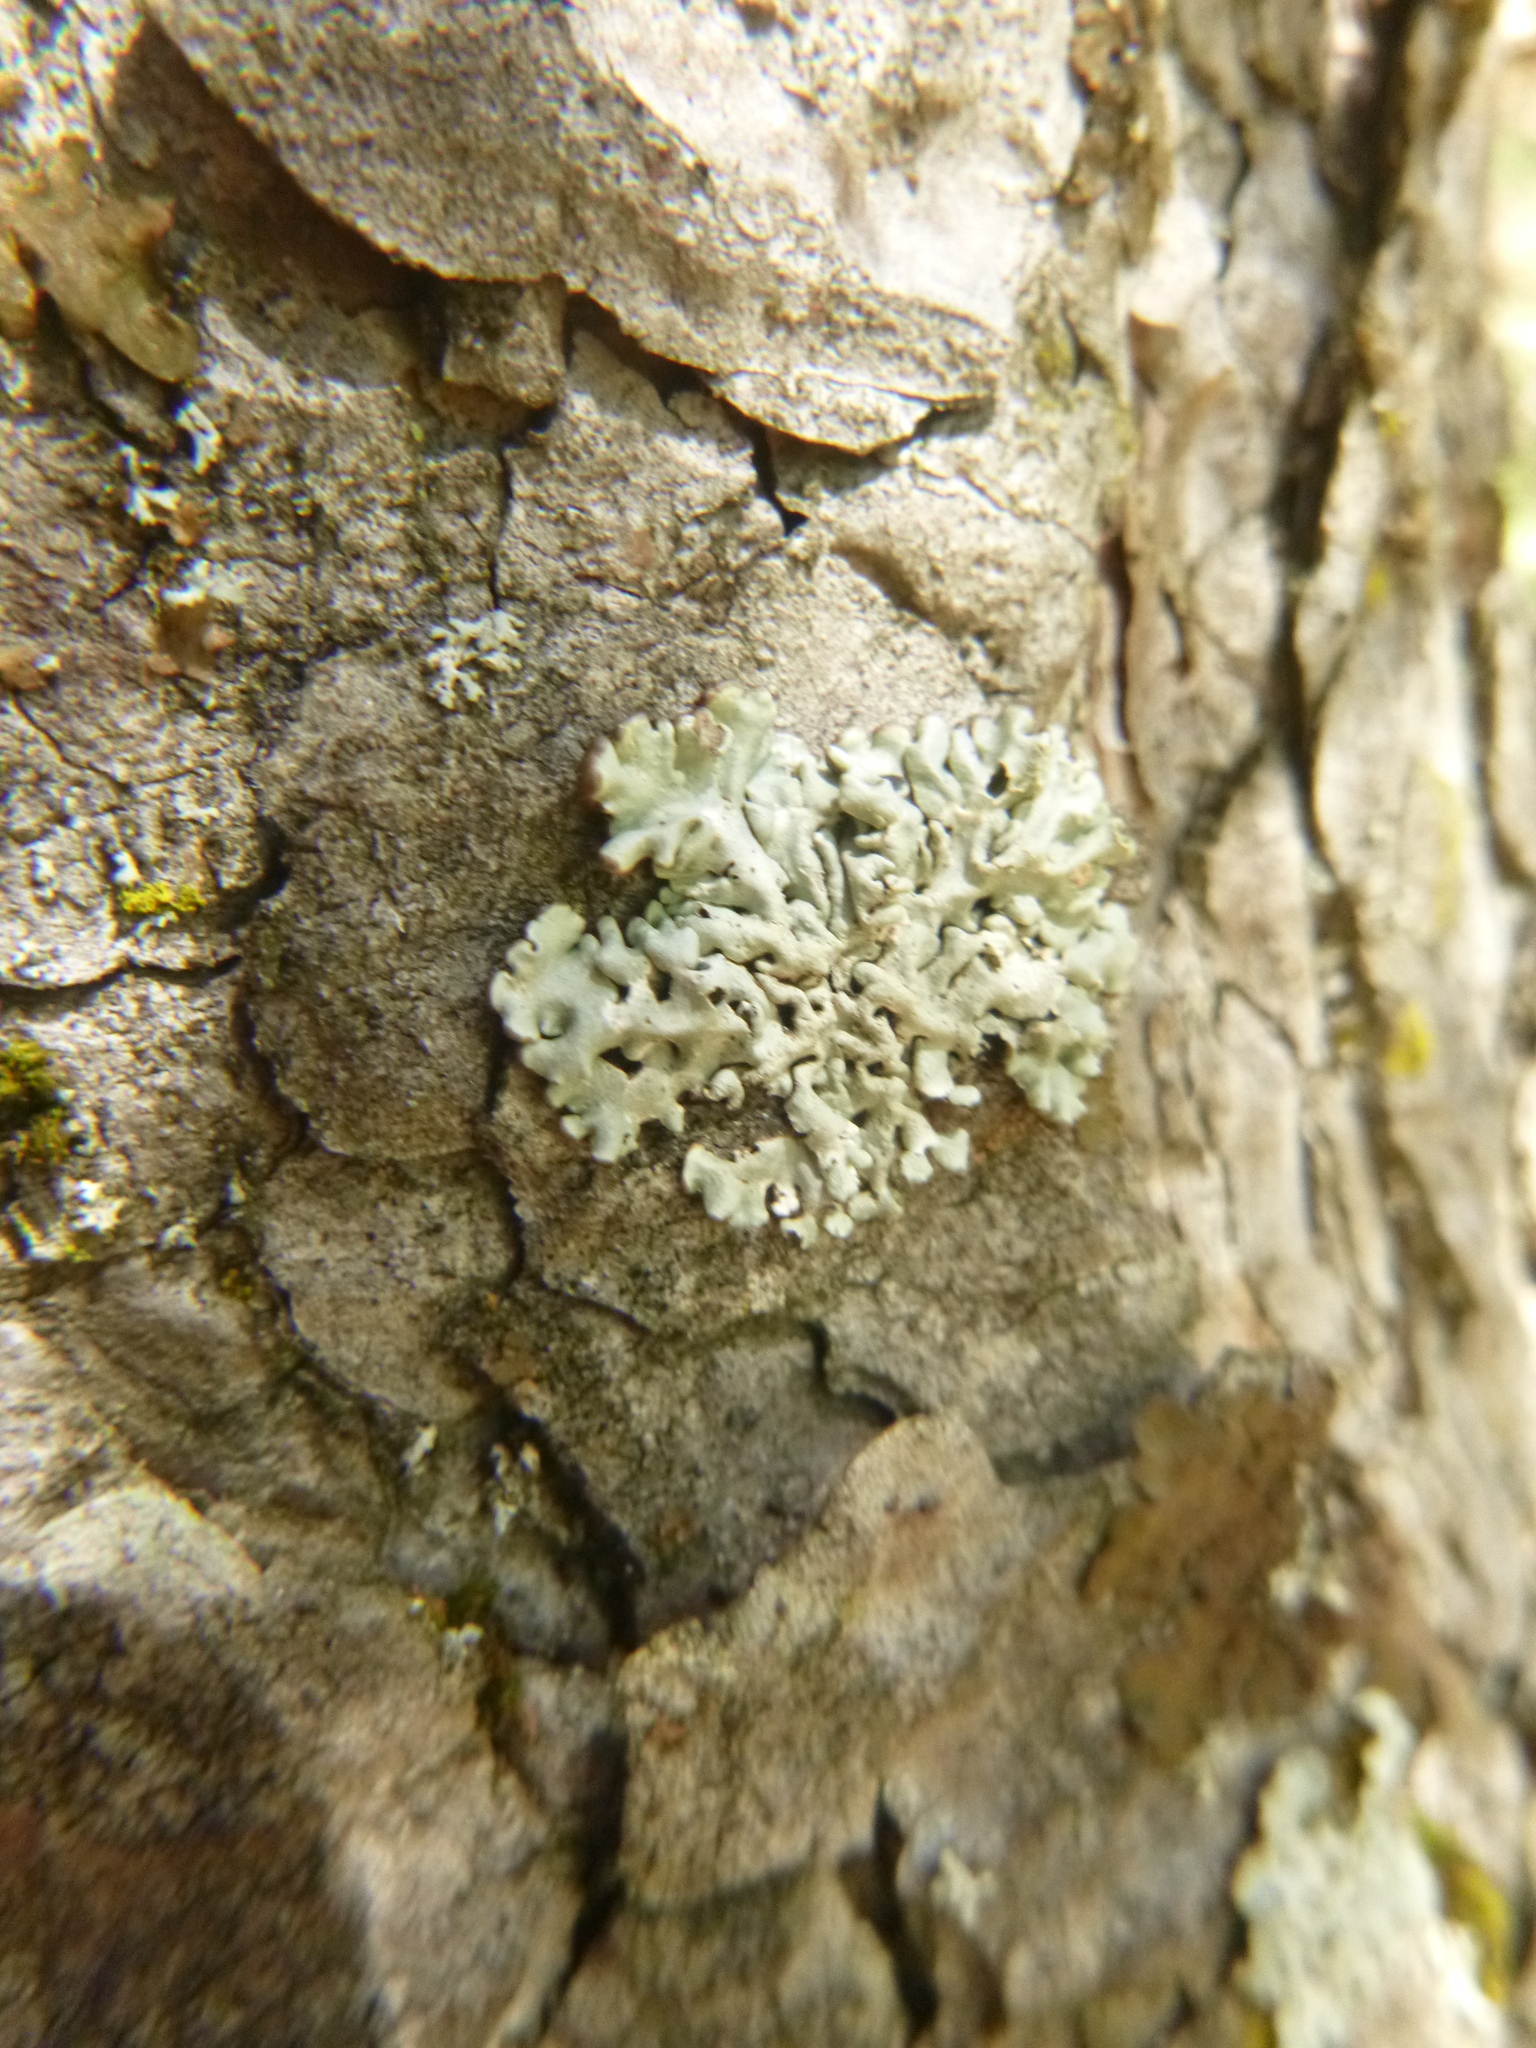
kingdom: Fungi
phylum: Ascomycota
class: Lecanoromycetes
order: Lecanorales
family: Parmeliaceae
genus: Hypogymnia
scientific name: Hypogymnia physodes
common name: Dark crottle
